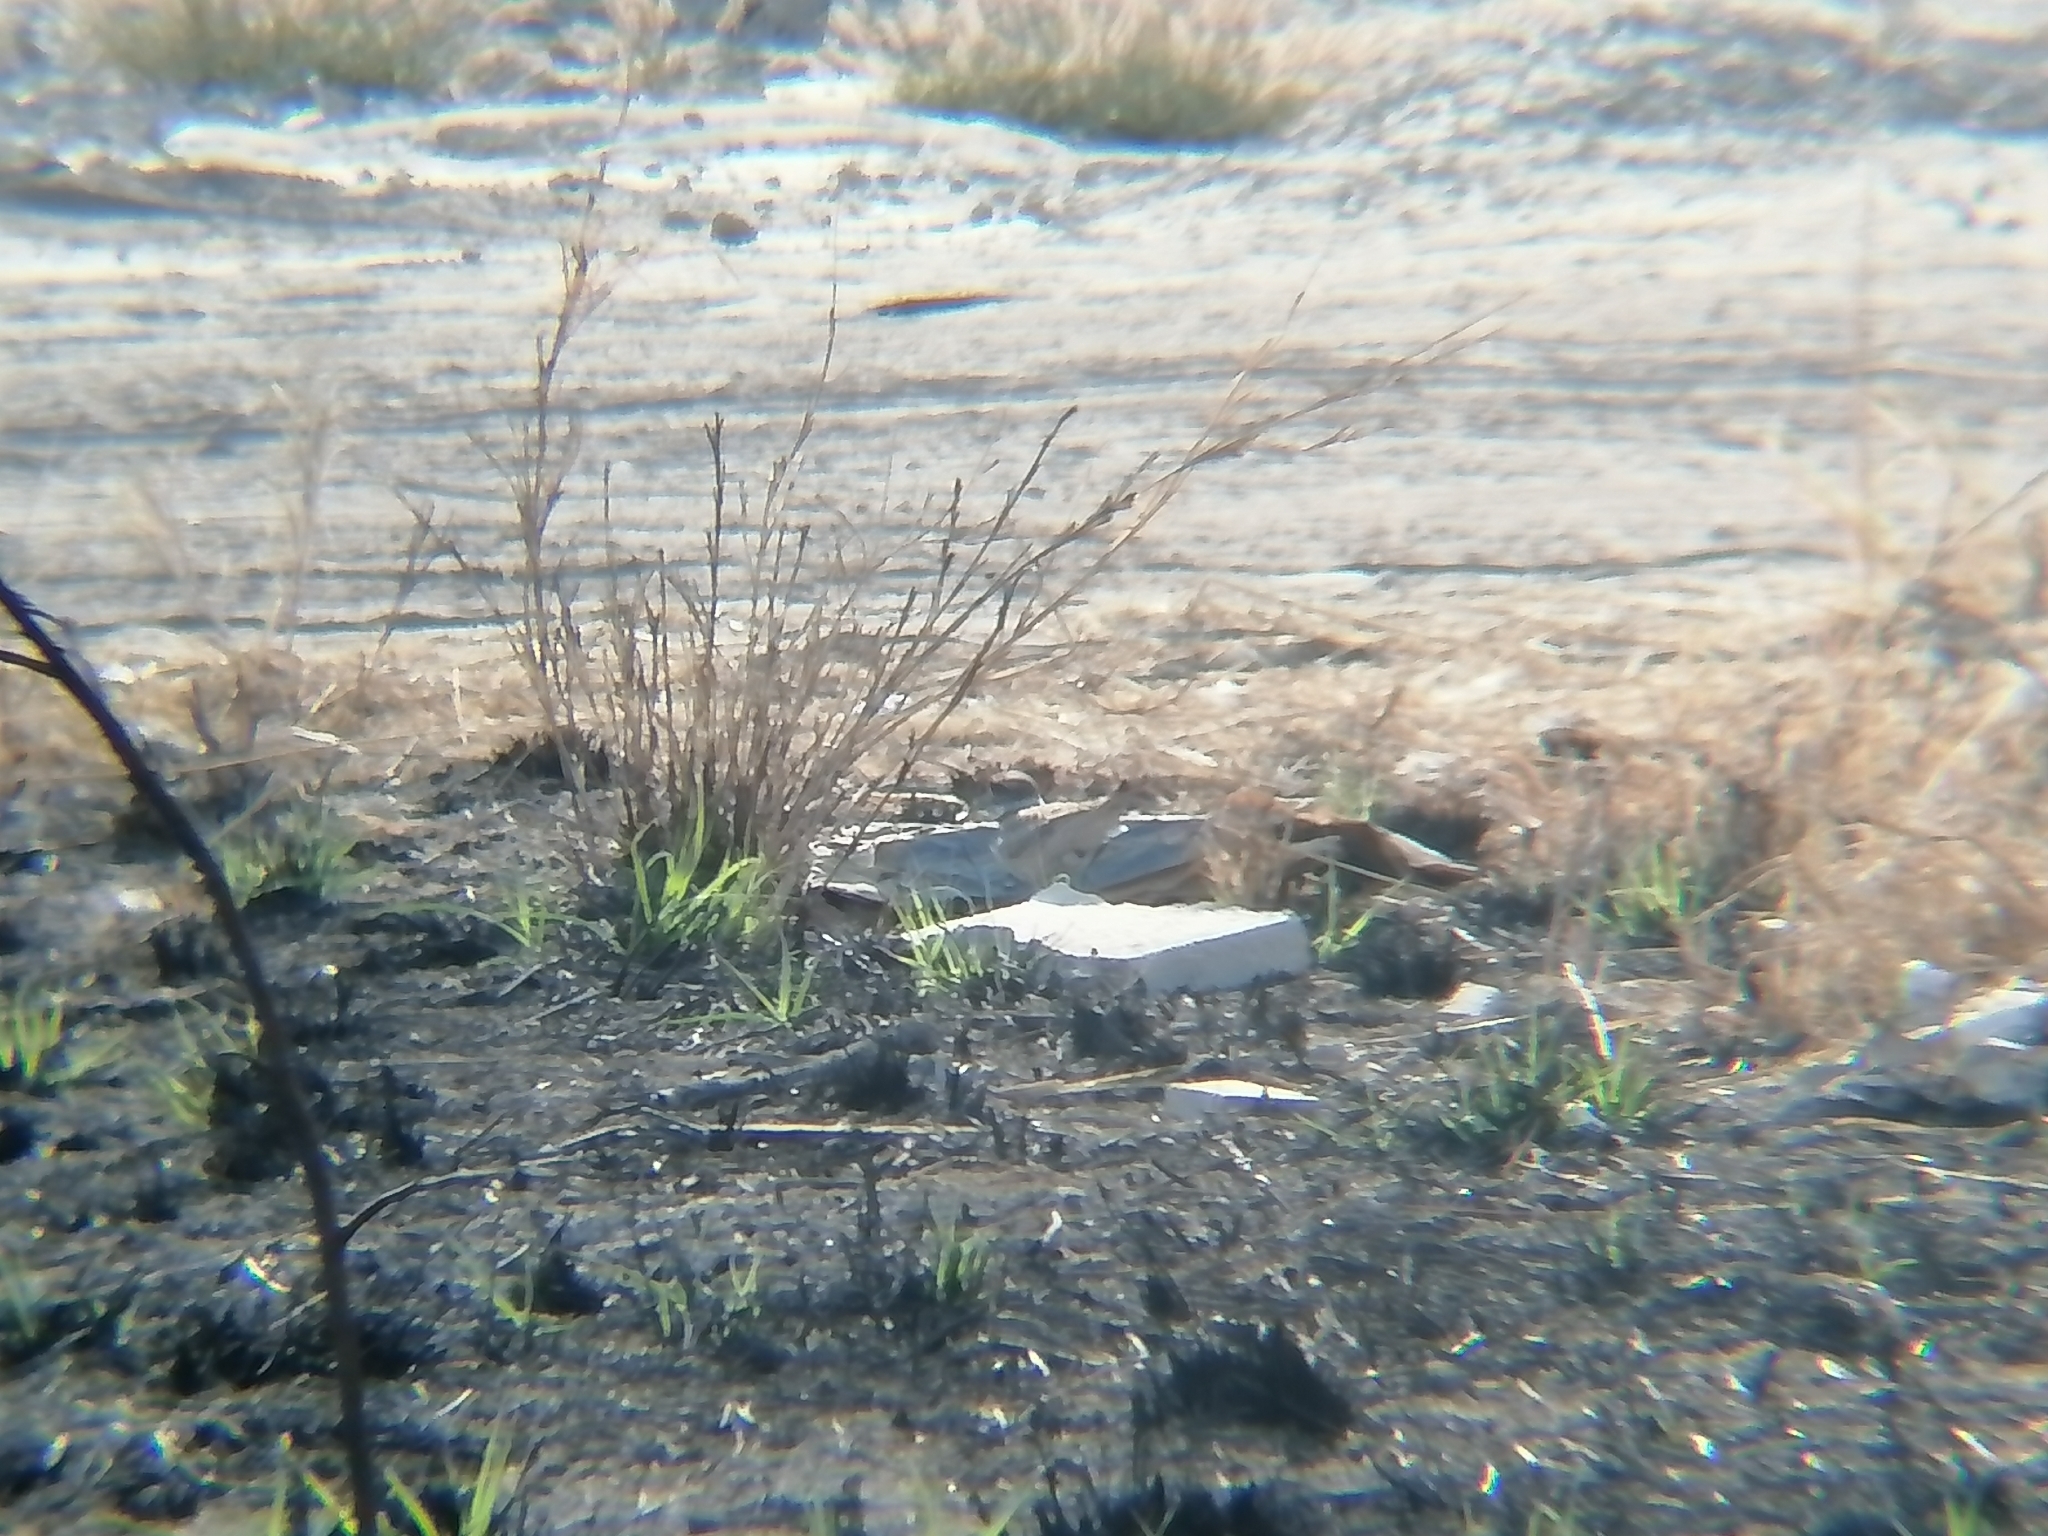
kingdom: Animalia
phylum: Chordata
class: Aves
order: Charadriiformes
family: Charadriidae
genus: Charadrius
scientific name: Charadrius vociferus
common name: Killdeer
